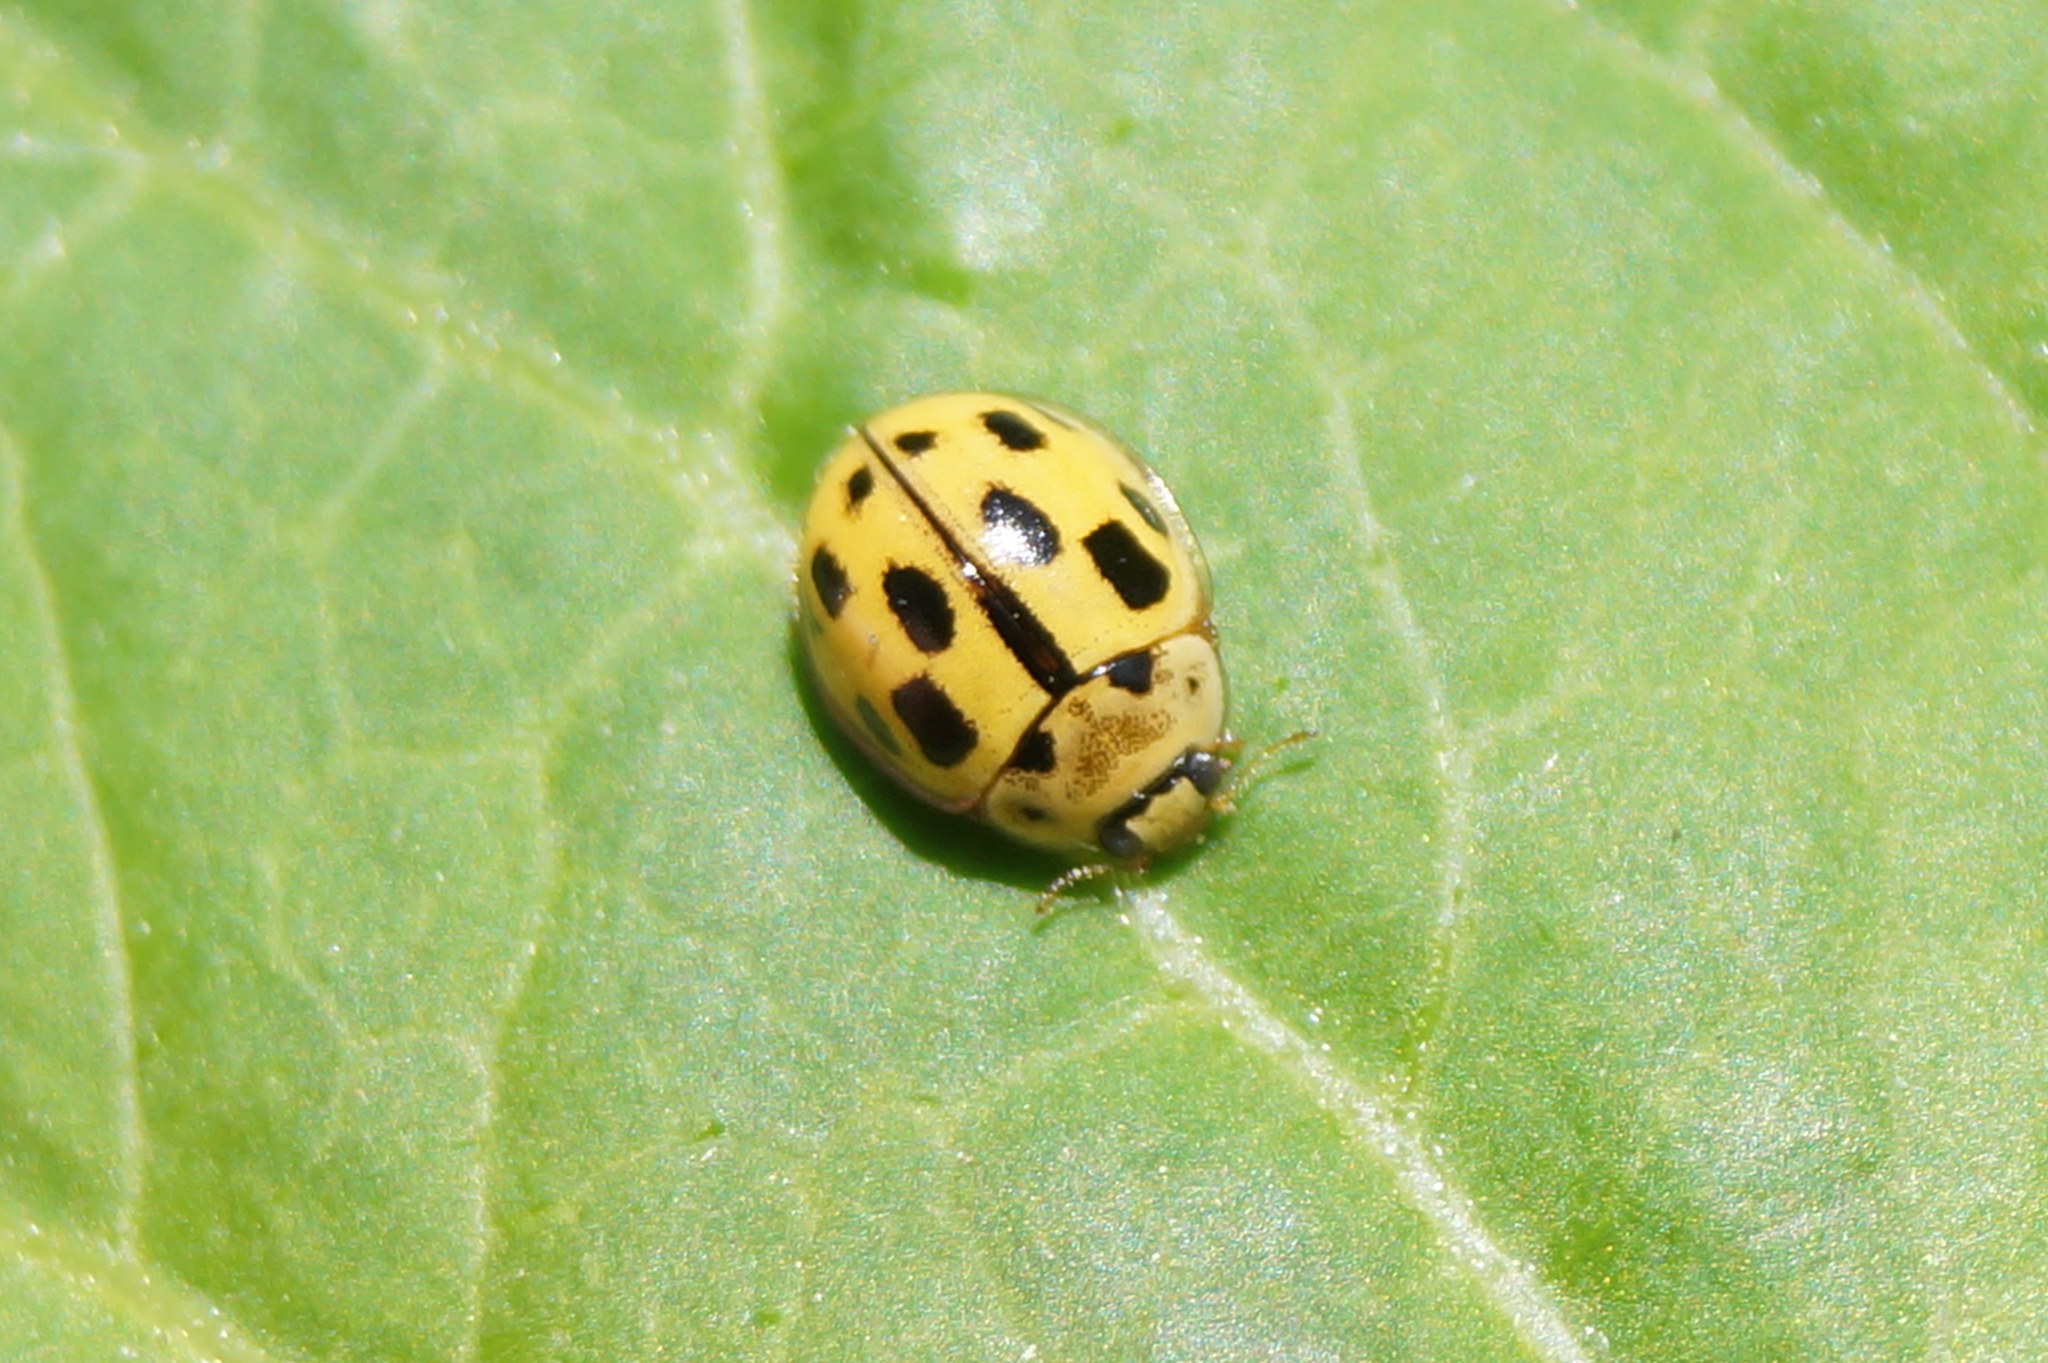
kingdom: Animalia
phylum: Arthropoda
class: Insecta
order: Coleoptera
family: Coccinellidae
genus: Propylaea
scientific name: Propylaea quatuordecimpunctata
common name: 14-spotted ladybird beetle
